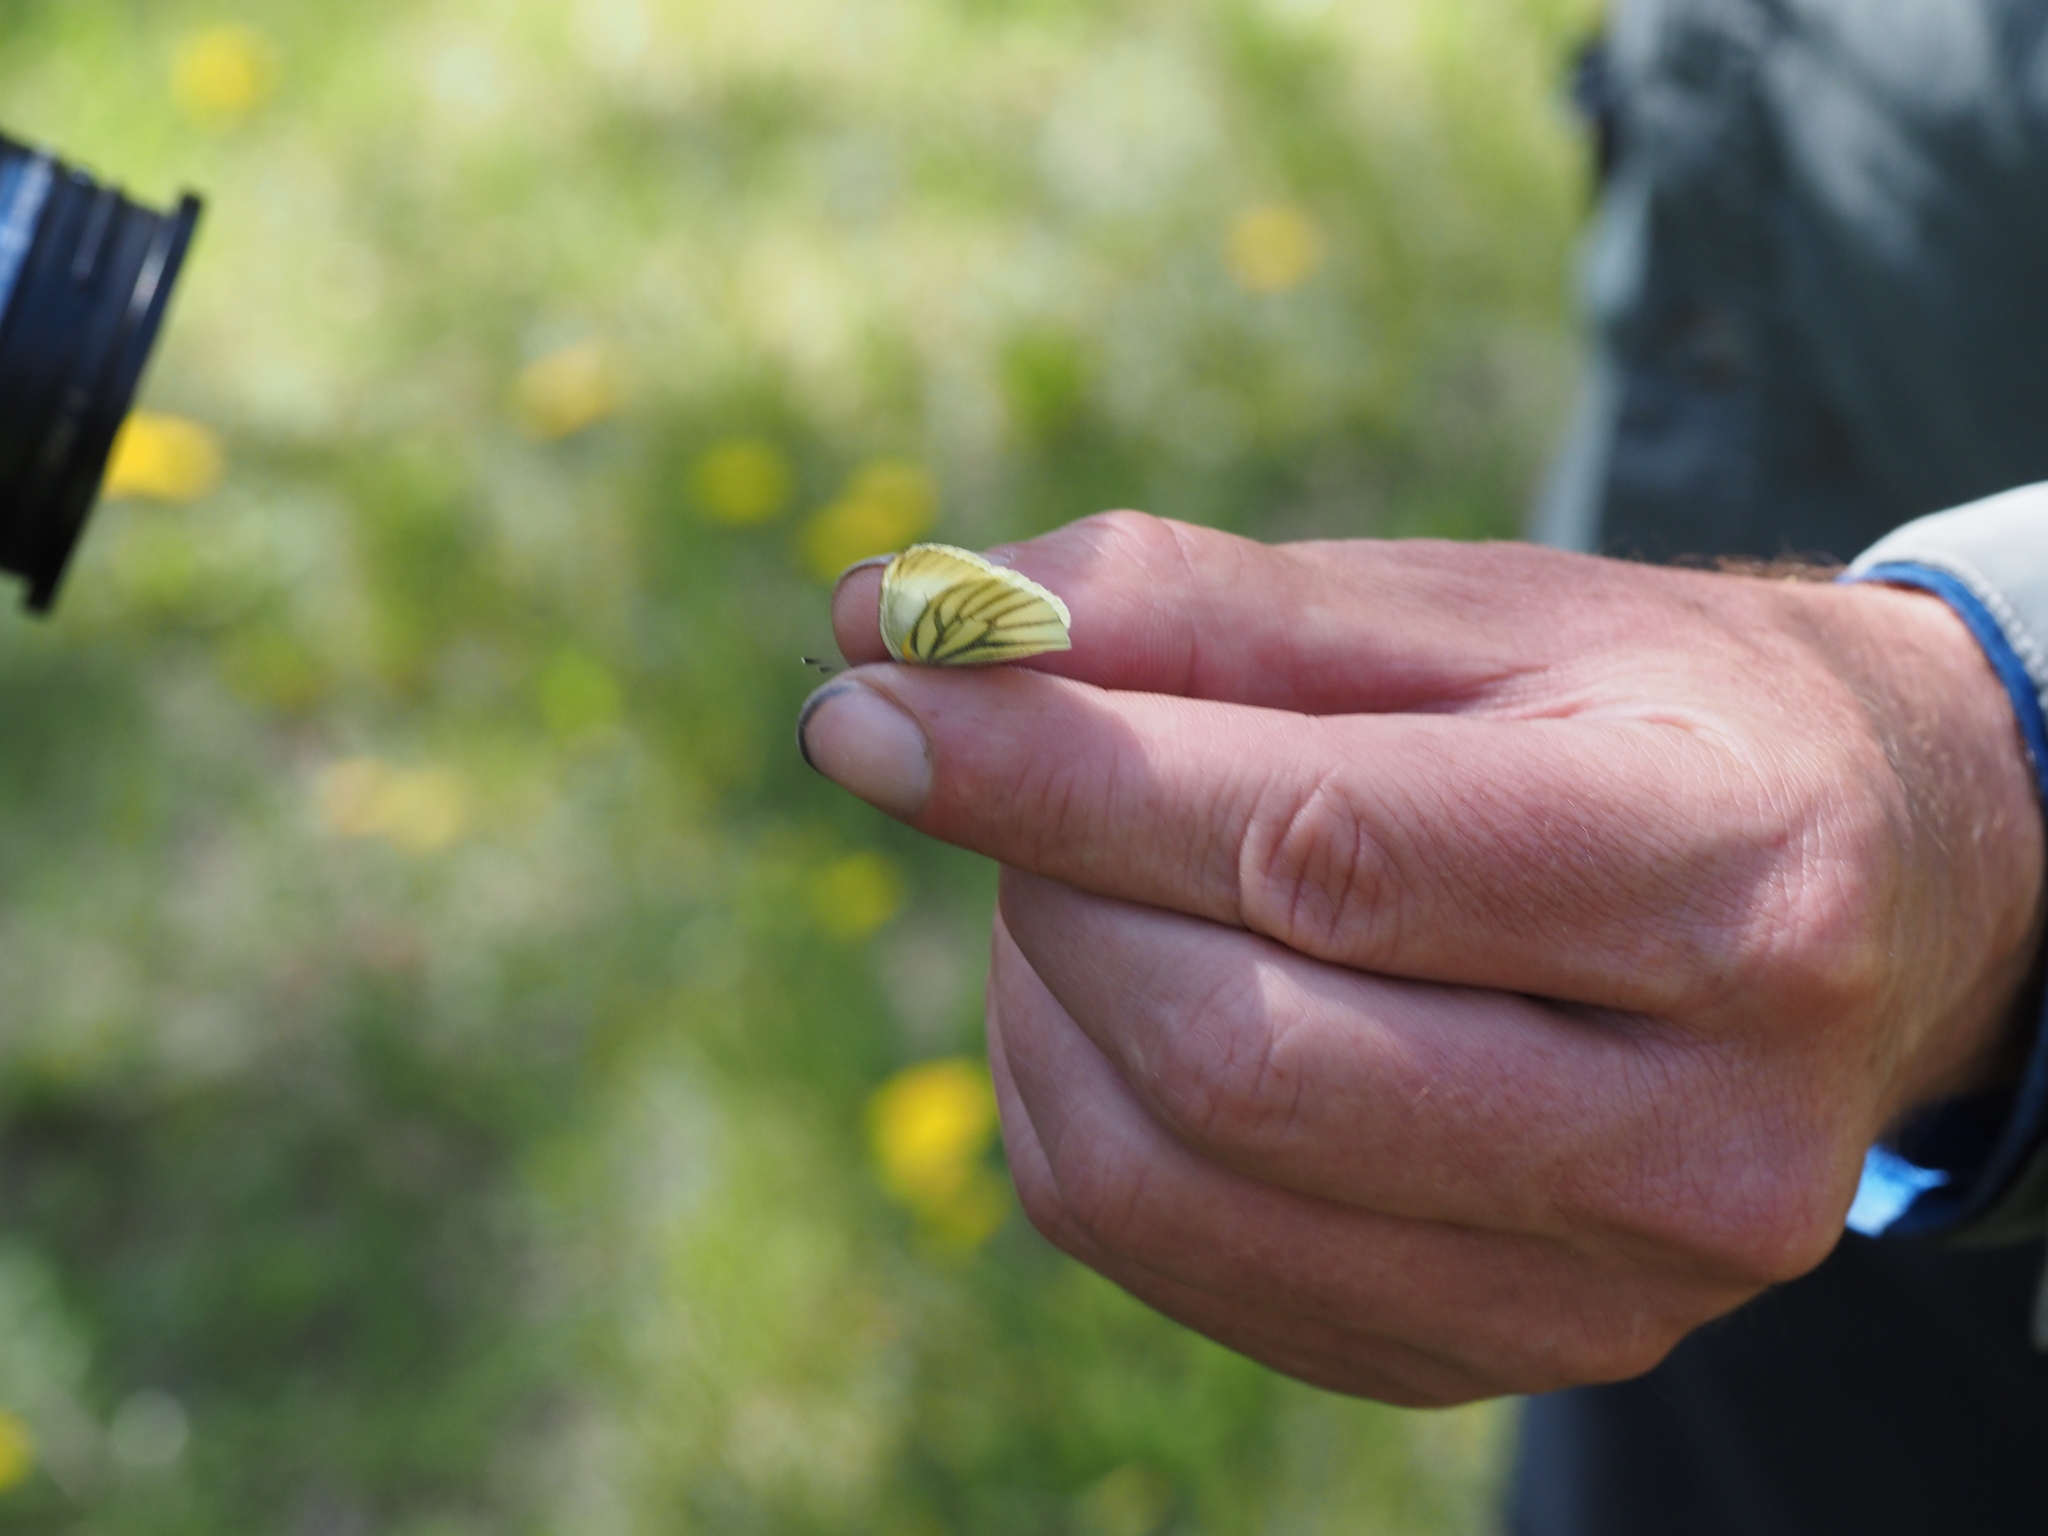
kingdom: Animalia
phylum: Arthropoda
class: Insecta
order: Lepidoptera
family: Pieridae
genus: Pieris
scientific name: Pieris marginalis
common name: Margined white
